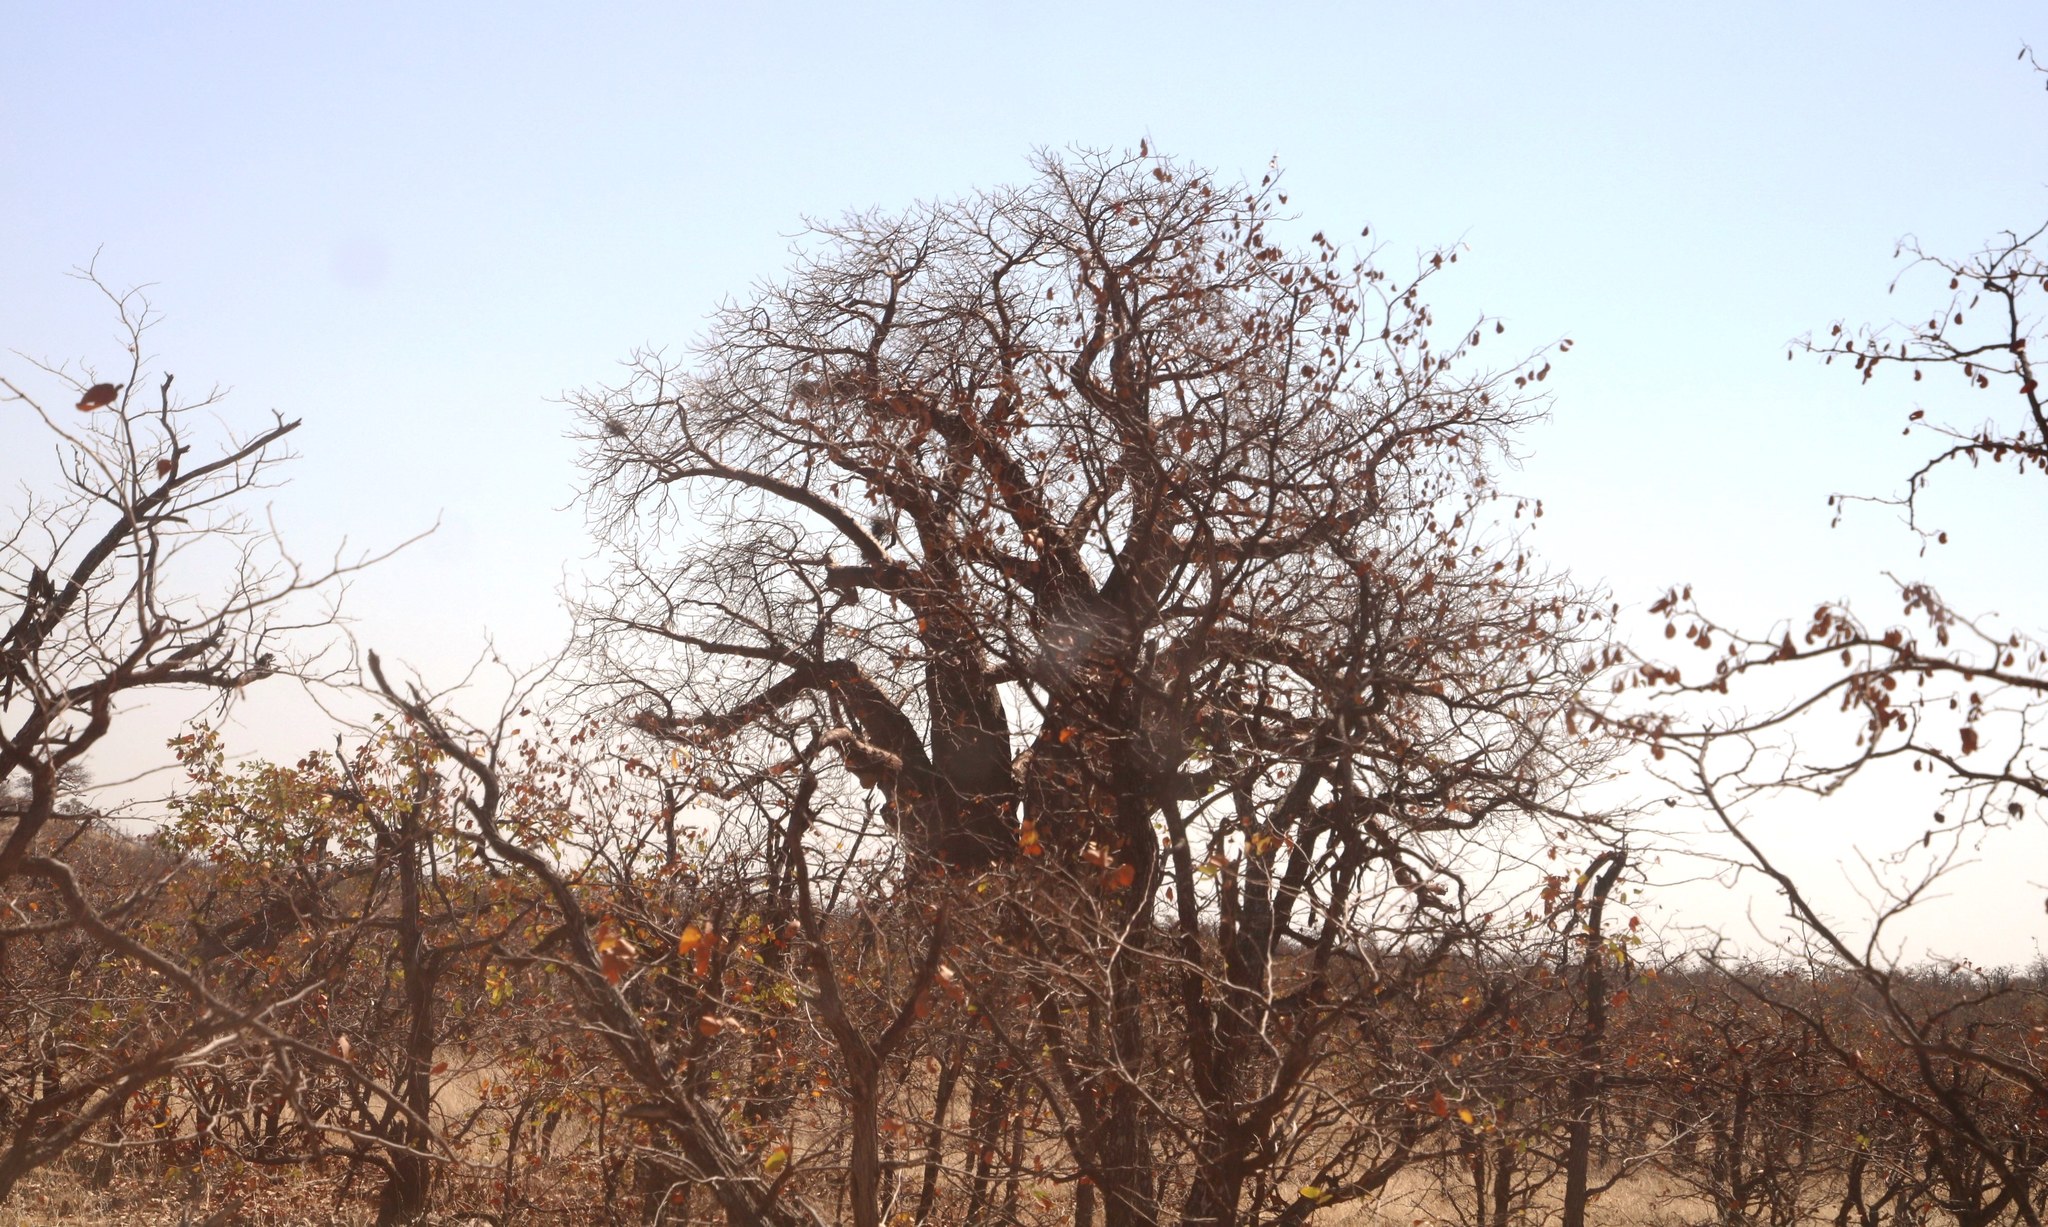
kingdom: Plantae
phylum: Tracheophyta
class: Magnoliopsida
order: Malvales
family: Malvaceae
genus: Adansonia
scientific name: Adansonia digitata
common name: Dead-rat-tree
